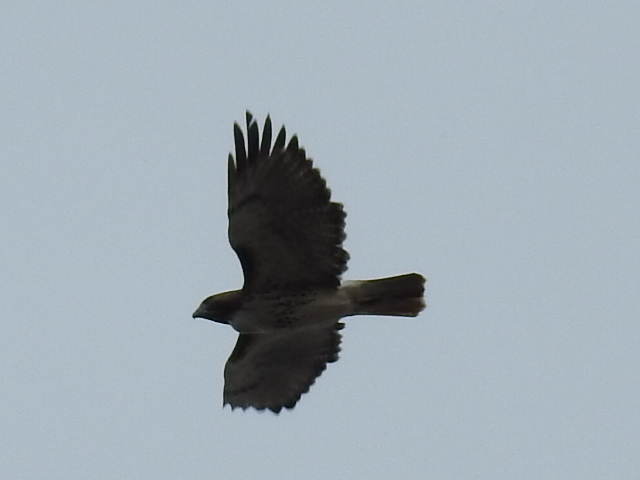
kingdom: Animalia
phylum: Chordata
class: Aves
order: Accipitriformes
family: Accipitridae
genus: Buteo
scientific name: Buteo jamaicensis
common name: Red-tailed hawk
